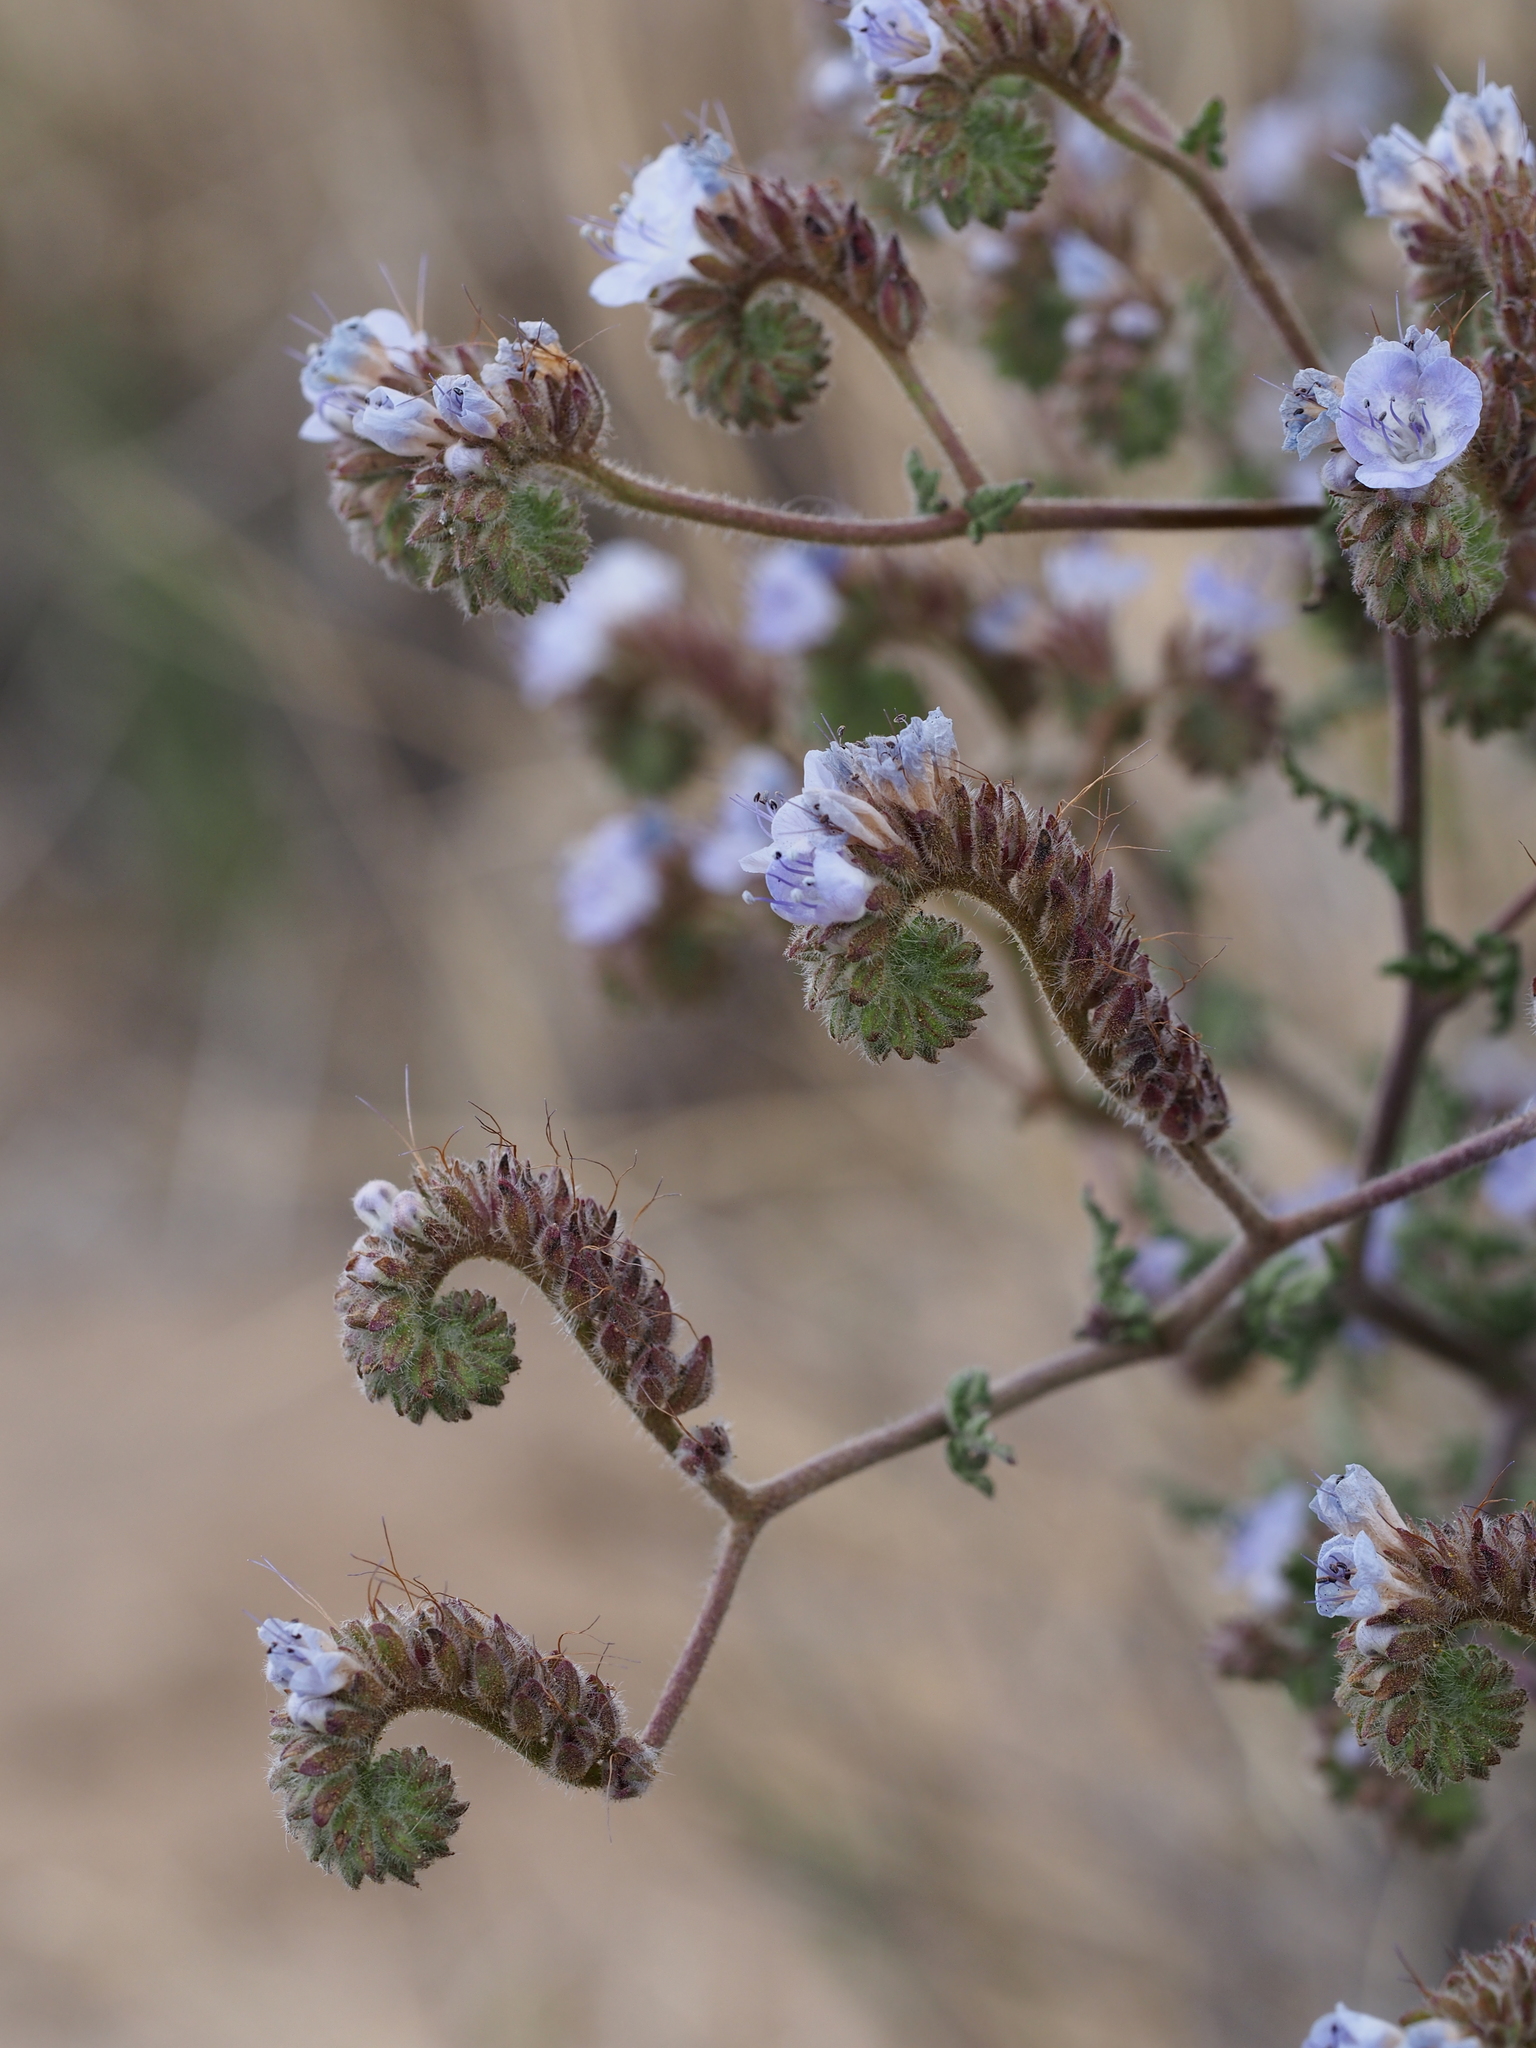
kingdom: Plantae
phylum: Tracheophyta
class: Magnoliopsida
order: Boraginales
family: Hydrophyllaceae
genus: Phacelia
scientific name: Phacelia distans
